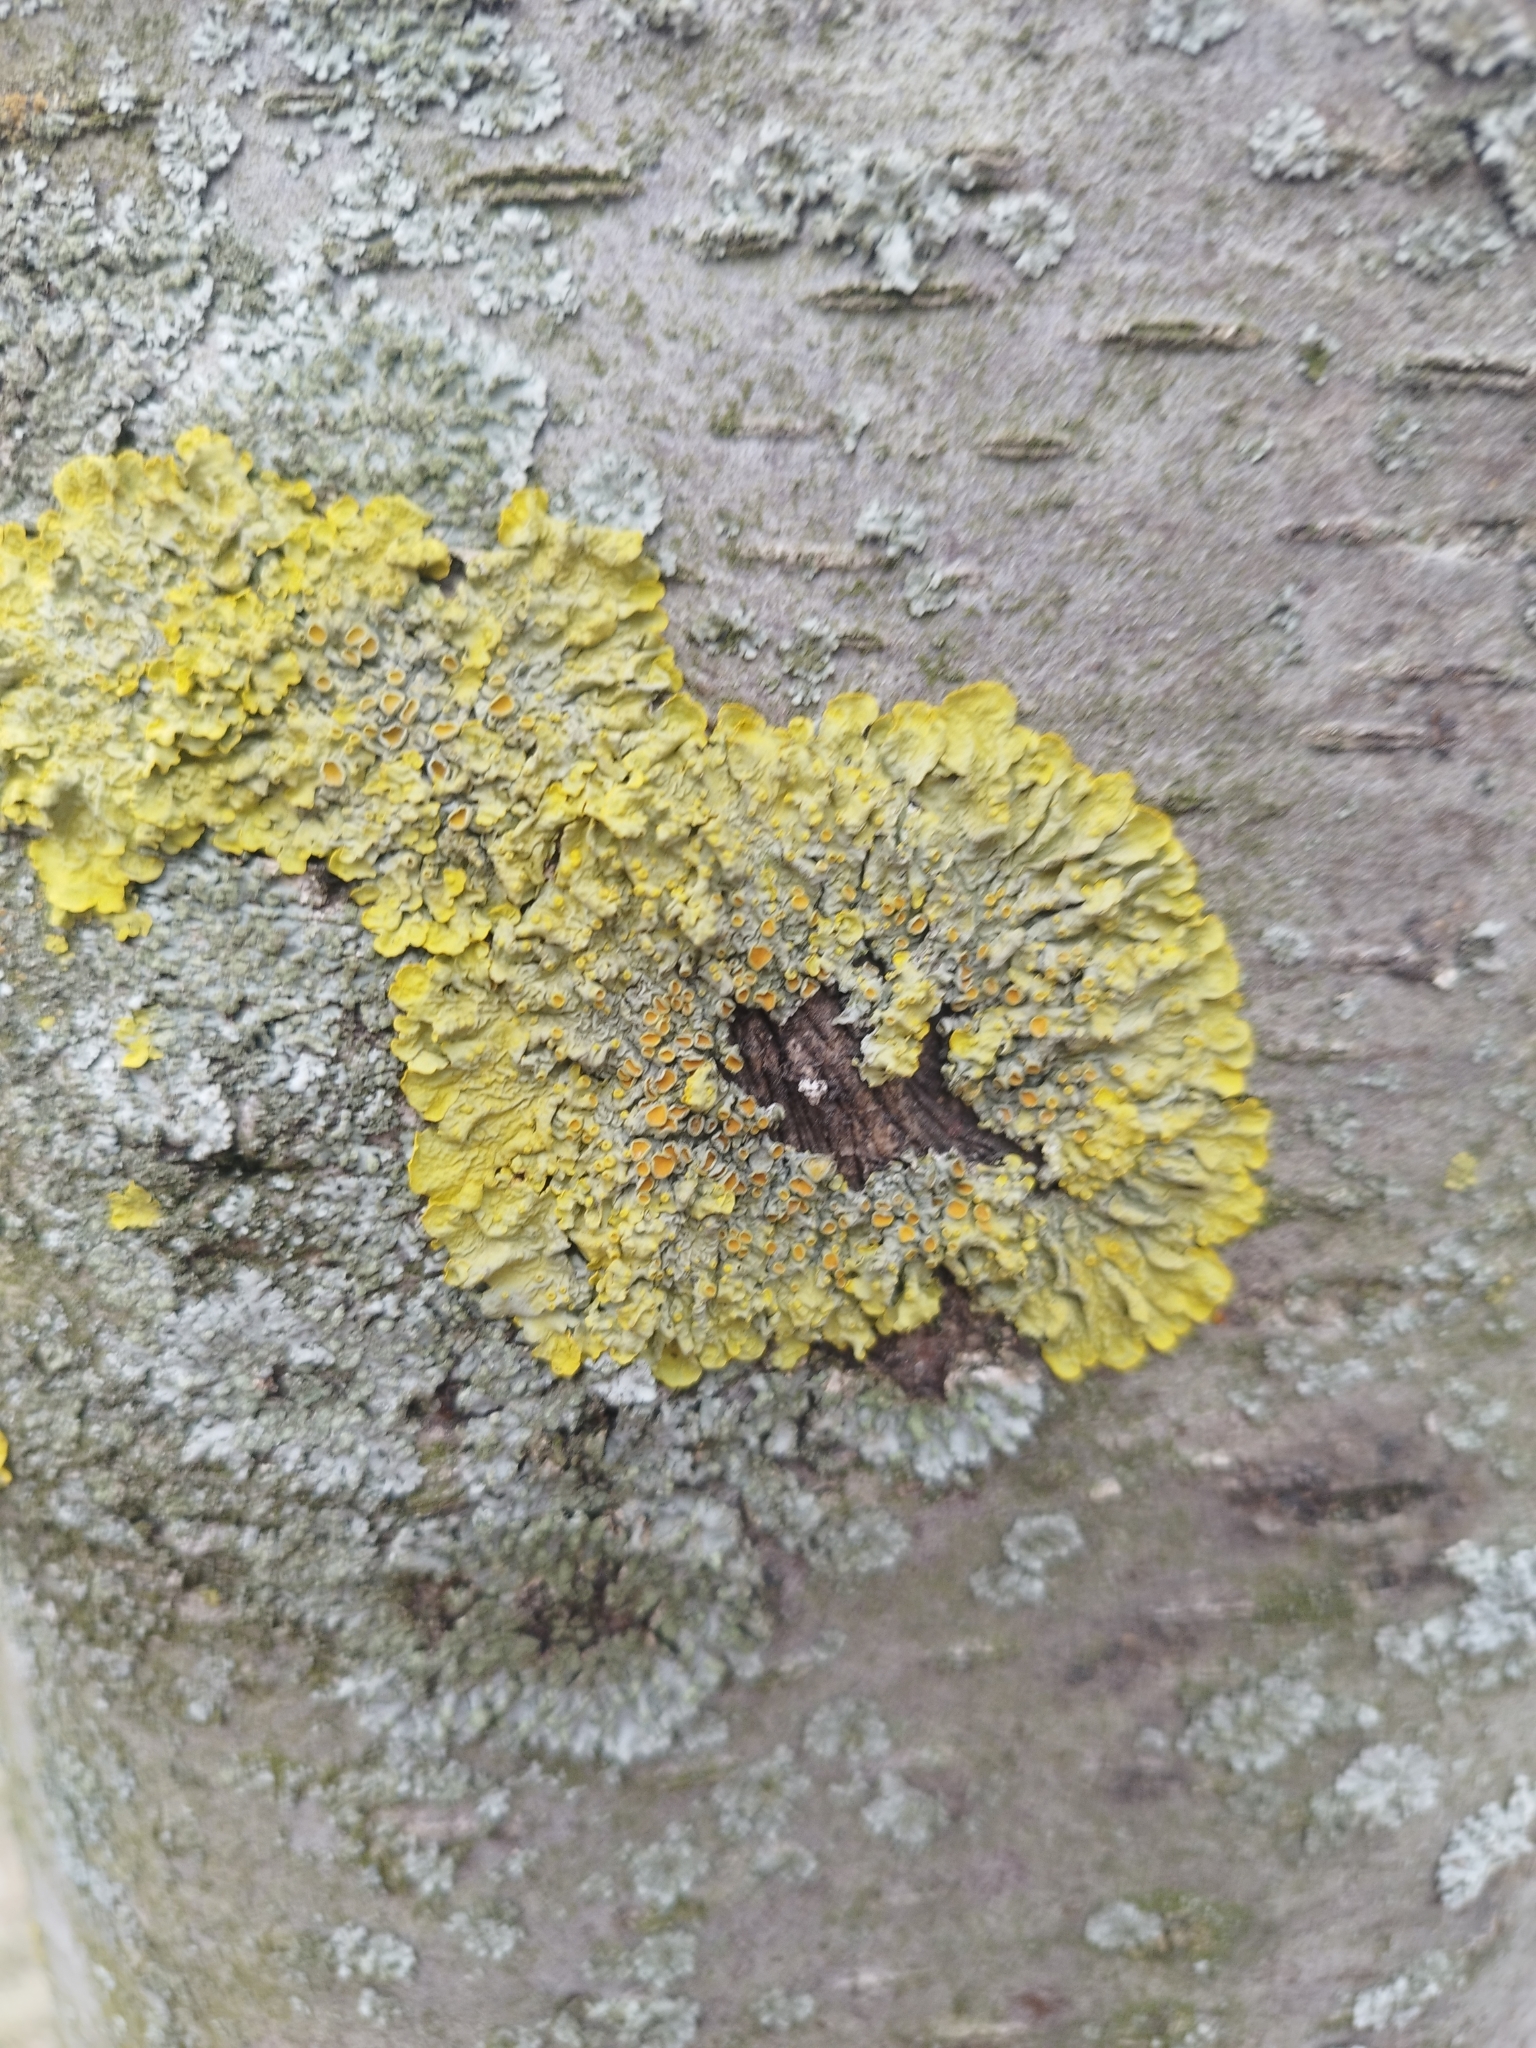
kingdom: Fungi
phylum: Ascomycota
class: Lecanoromycetes
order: Teloschistales
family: Teloschistaceae
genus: Xanthoria
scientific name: Xanthoria parietina
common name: Common orange lichen
